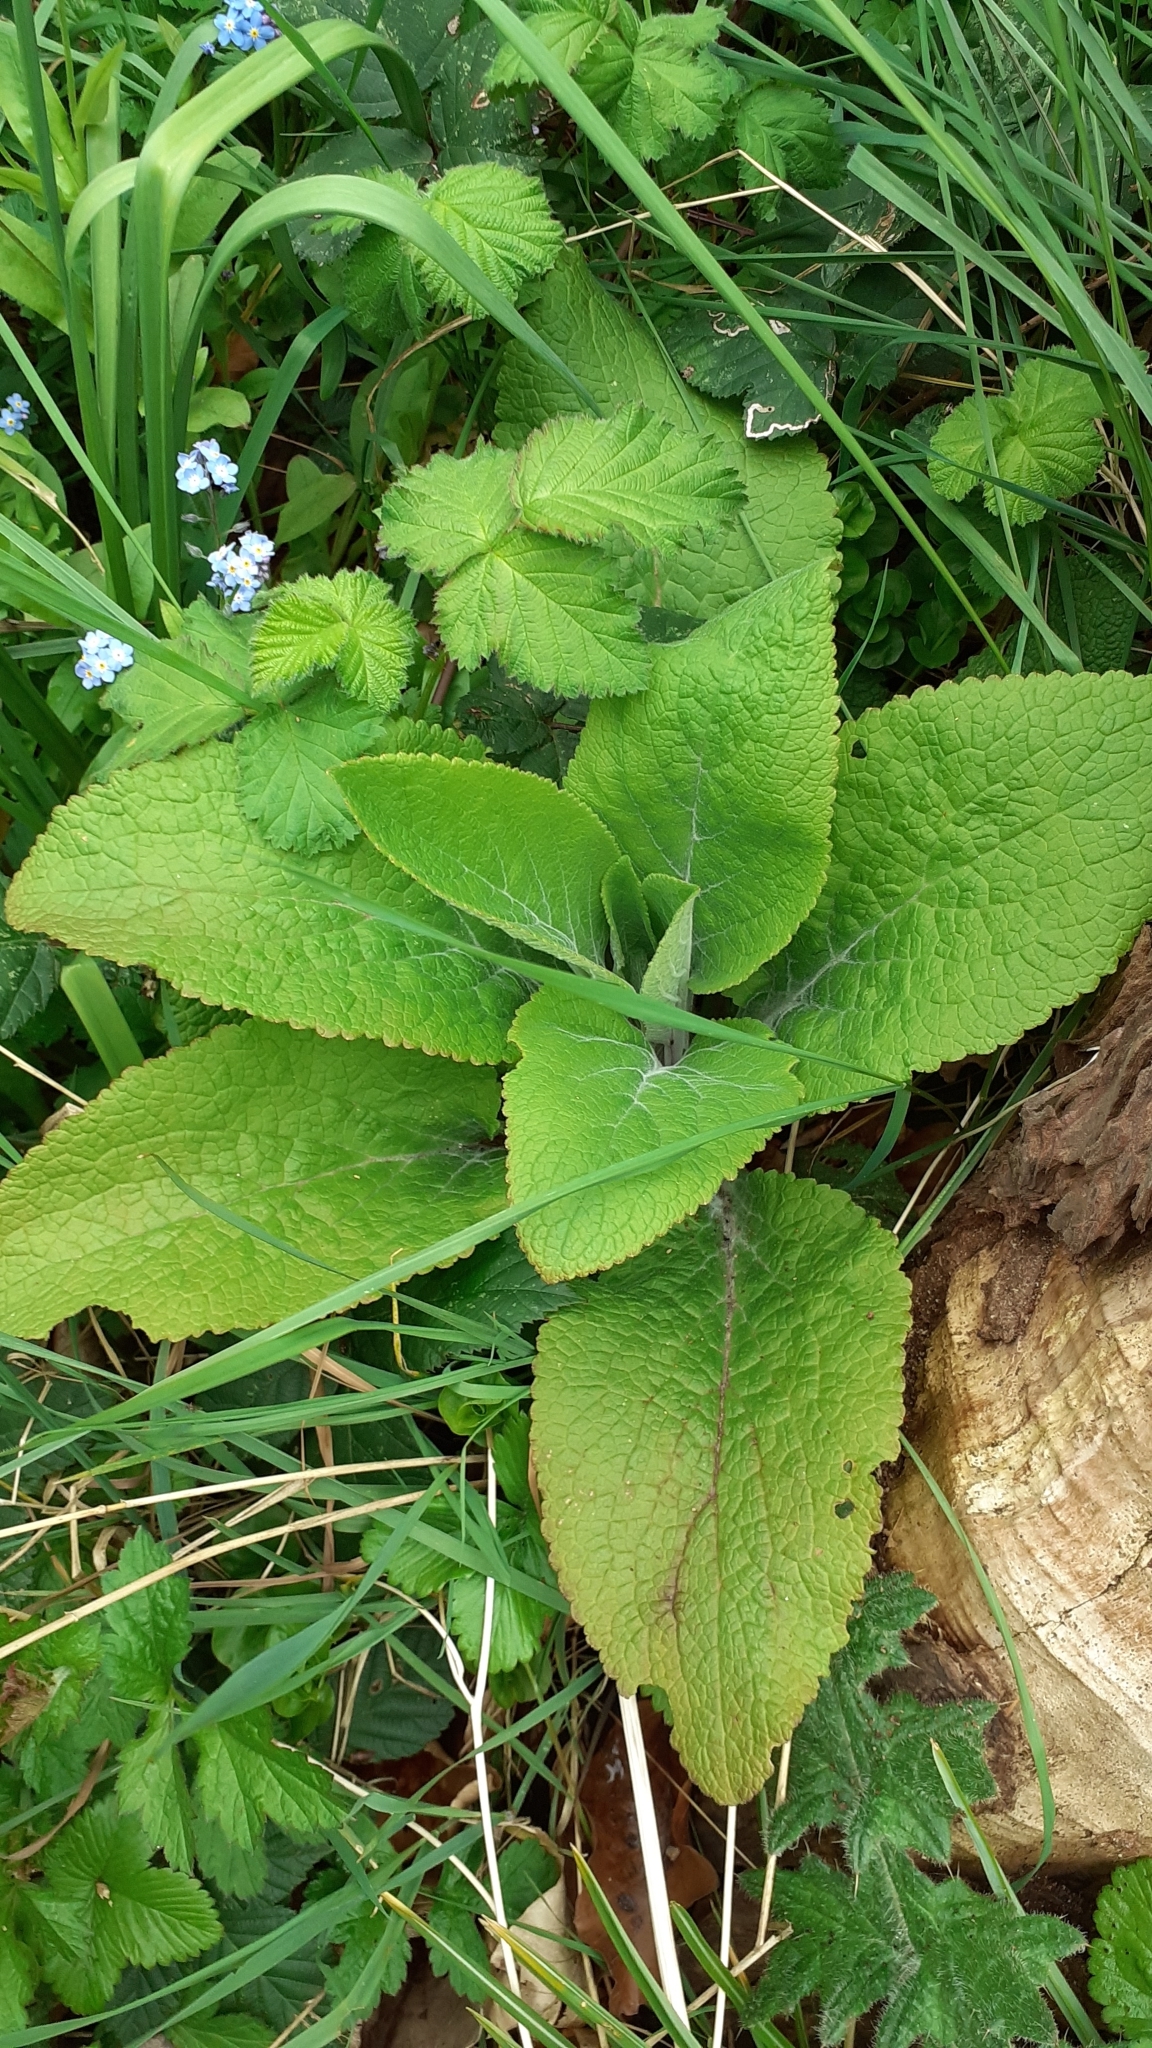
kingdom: Plantae
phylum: Tracheophyta
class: Magnoliopsida
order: Lamiales
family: Plantaginaceae
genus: Digitalis
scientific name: Digitalis purpurea
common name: Foxglove
